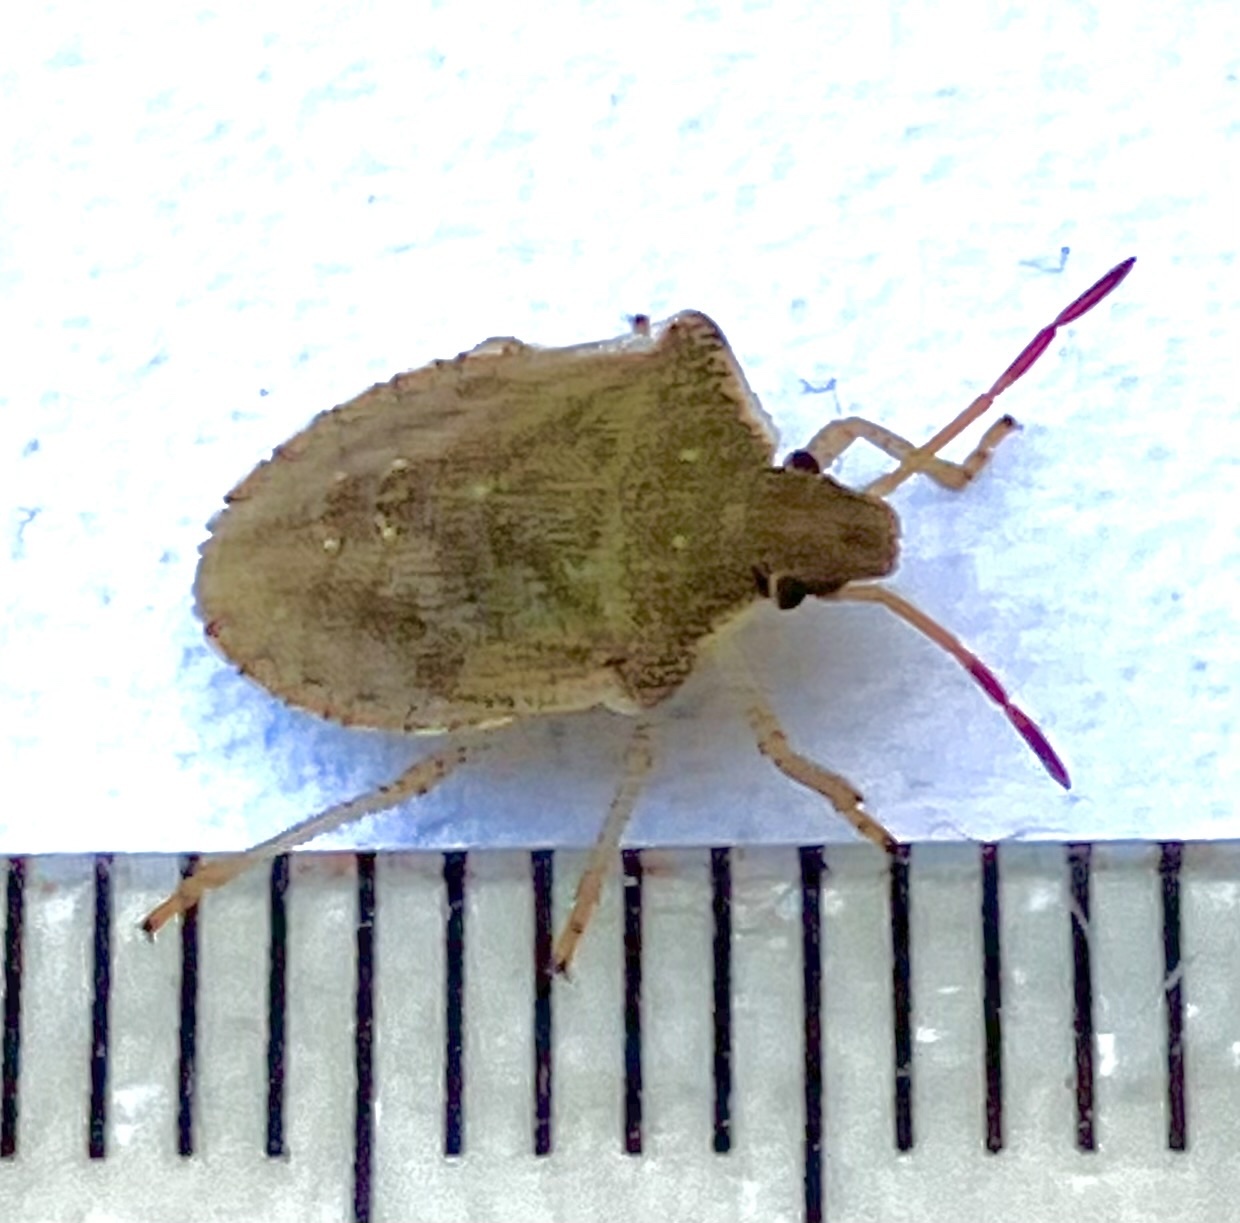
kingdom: Animalia
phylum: Arthropoda
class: Insecta
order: Hemiptera
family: Pentatomidae
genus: Euschistus
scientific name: Euschistus
